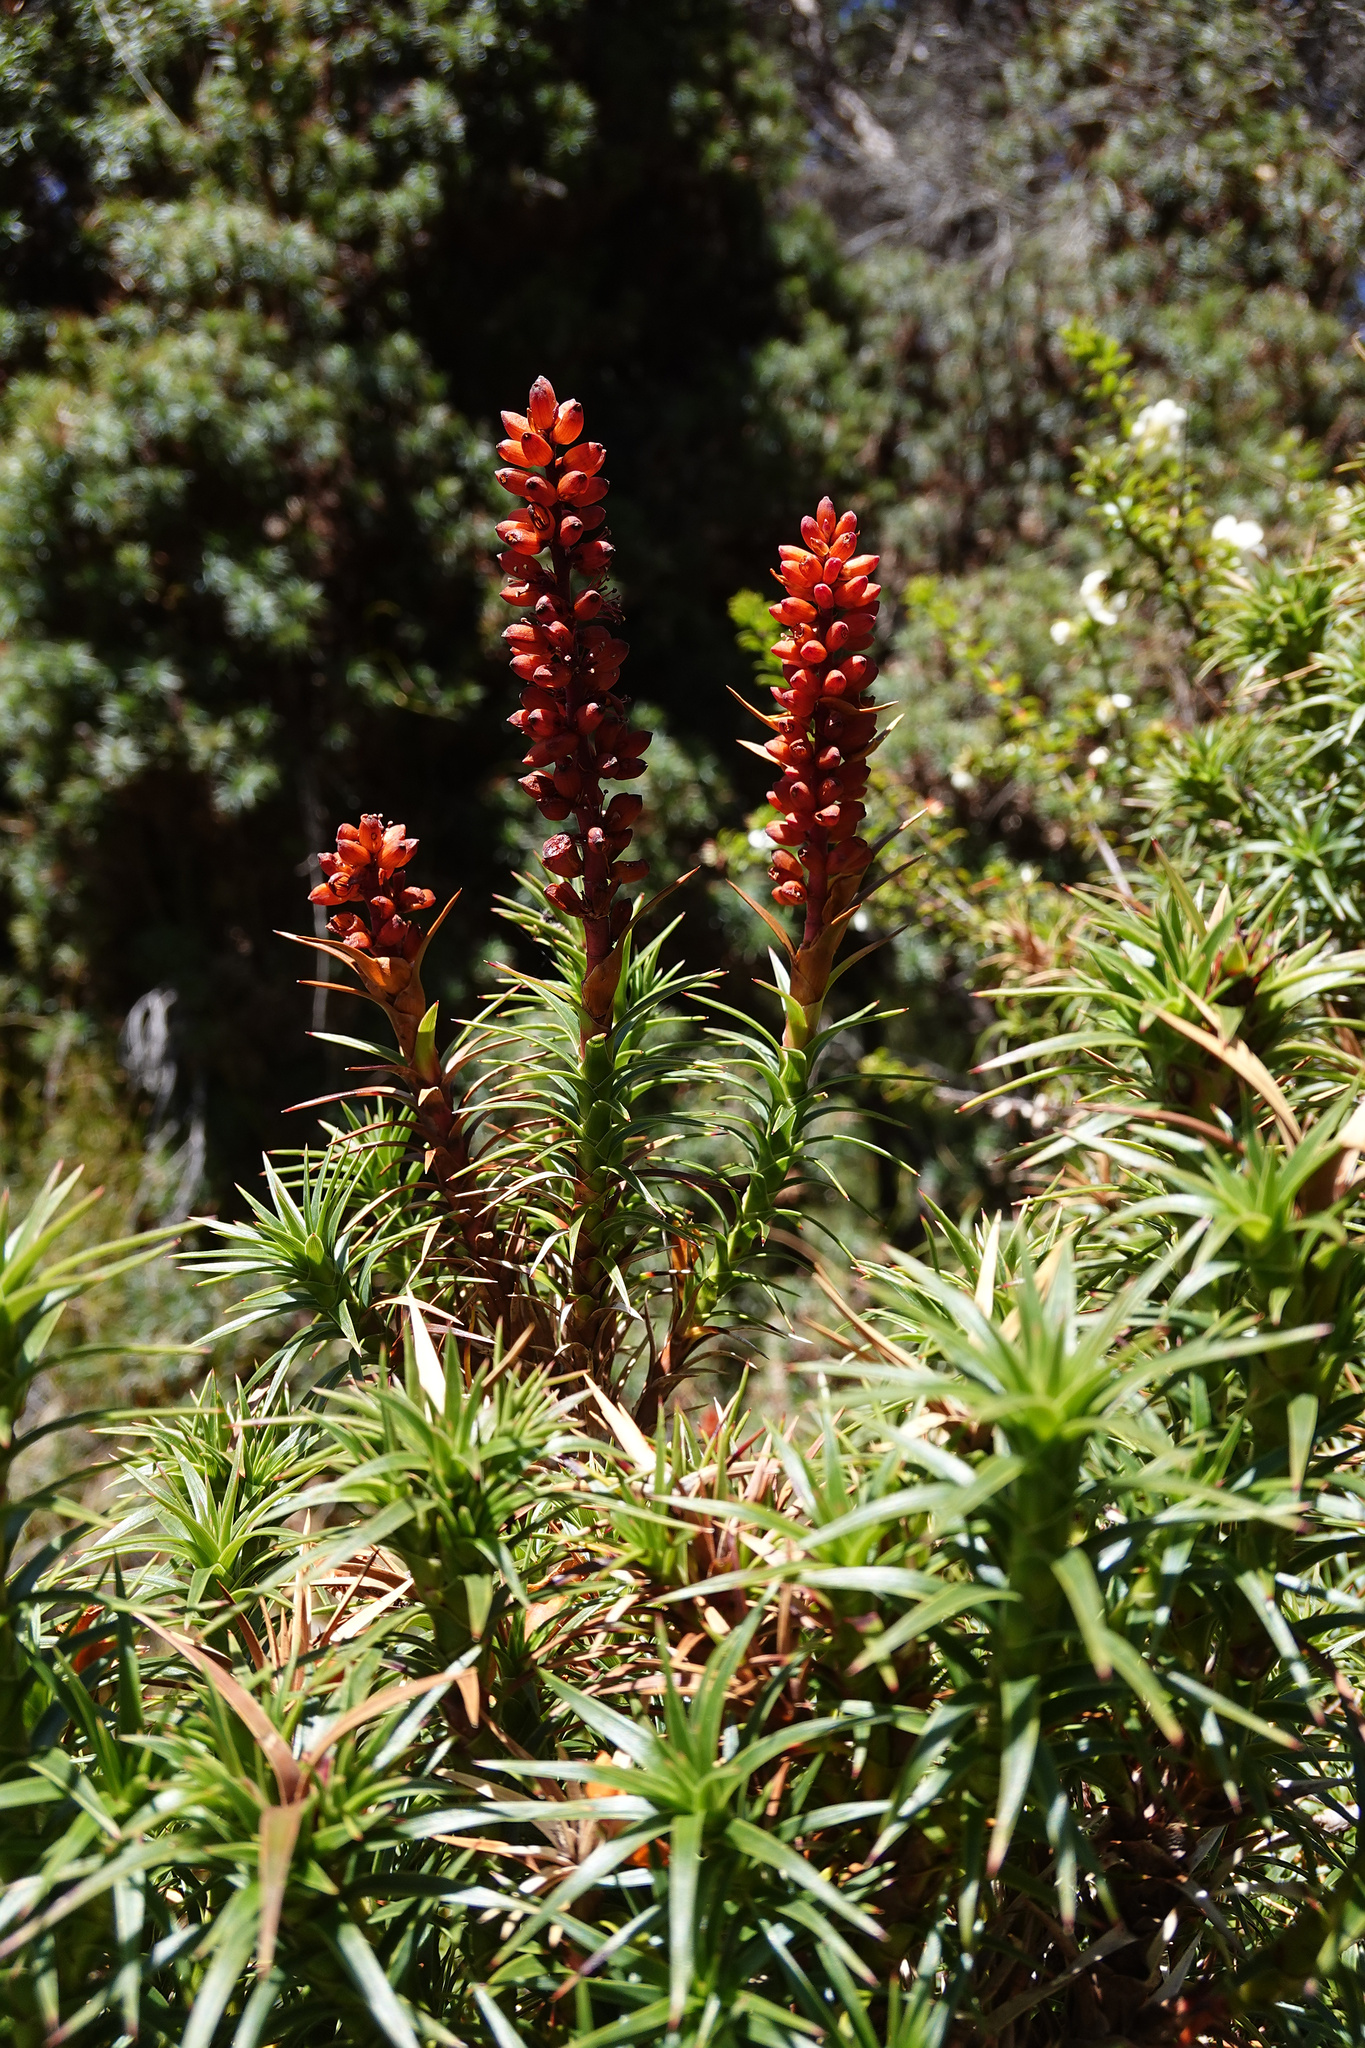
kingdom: Plantae
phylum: Tracheophyta
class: Magnoliopsida
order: Ericales
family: Ericaceae
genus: Dracophyllum
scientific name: Dracophyllum persistentifolium
